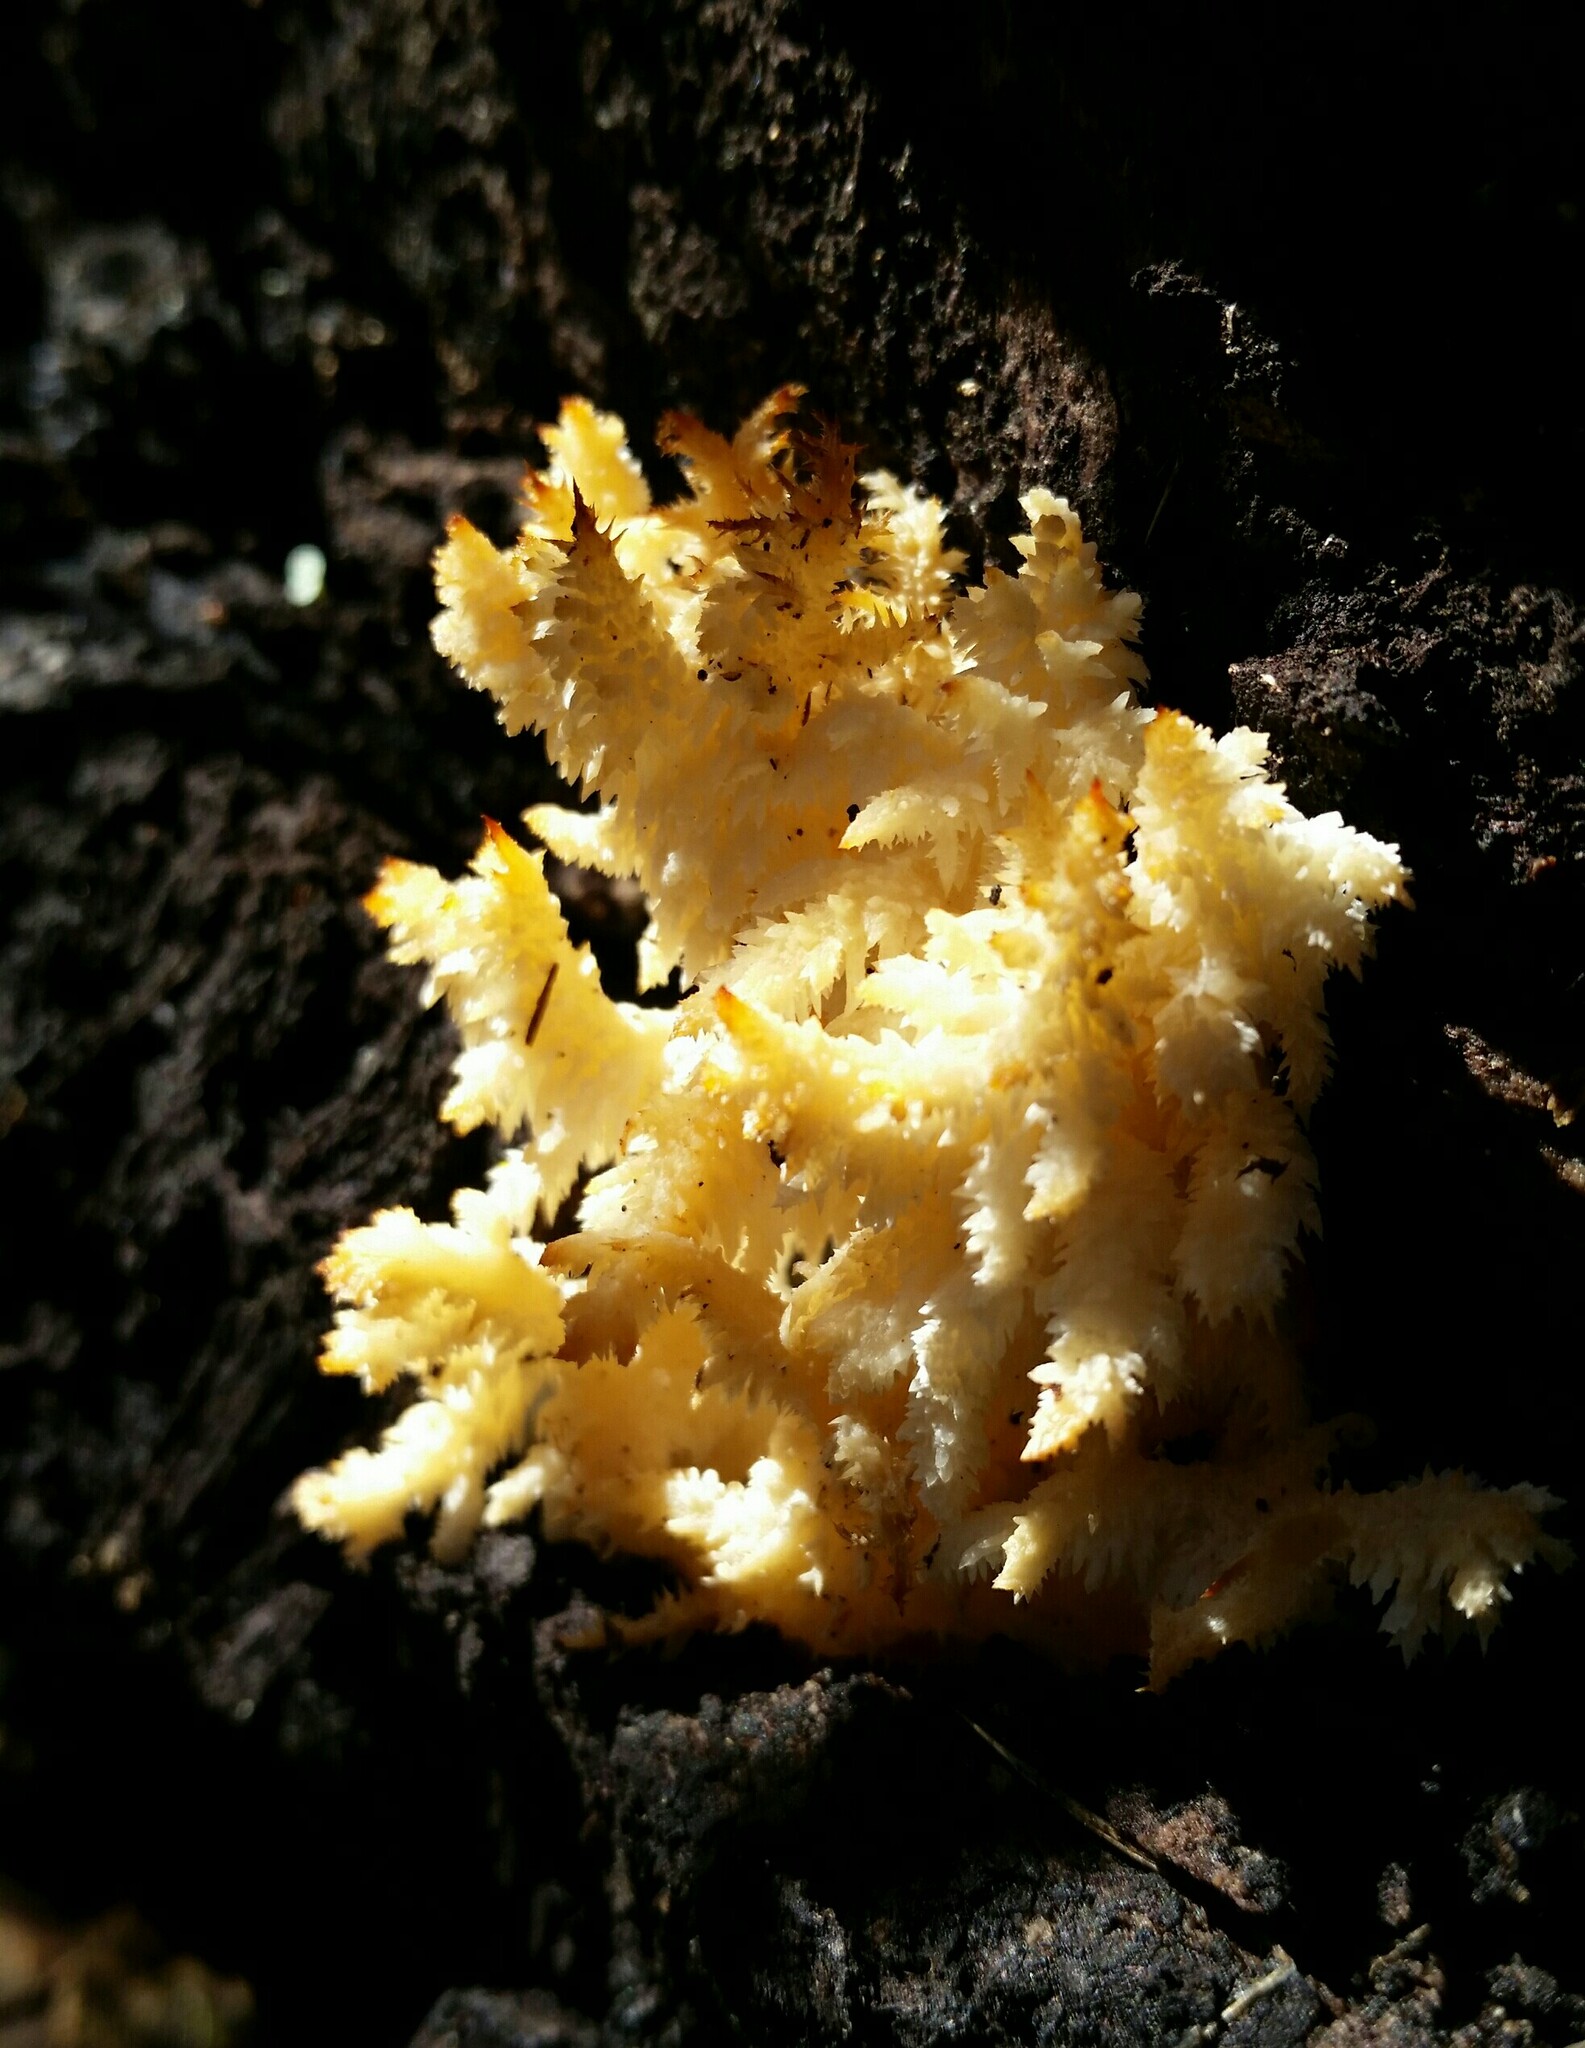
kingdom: Fungi
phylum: Basidiomycota
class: Agaricomycetes
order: Russulales
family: Hericiaceae
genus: Hericium
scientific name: Hericium coralloides
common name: Coral tooth
